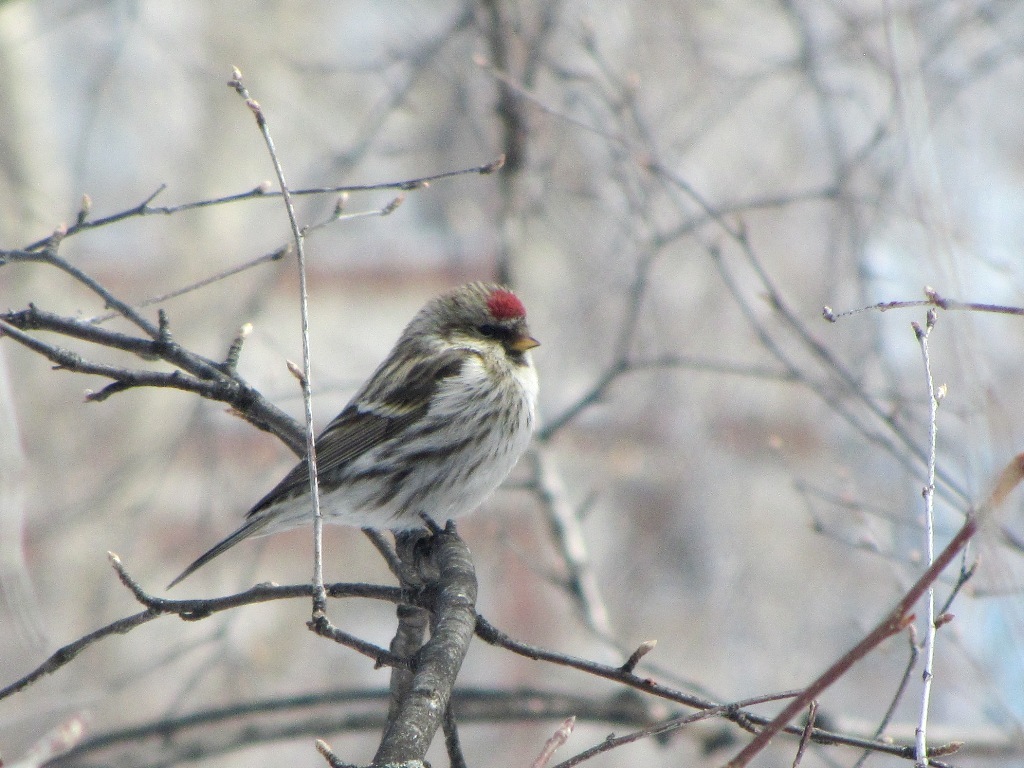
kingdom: Animalia
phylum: Chordata
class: Aves
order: Passeriformes
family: Fringillidae
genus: Acanthis
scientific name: Acanthis flammea
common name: Common redpoll
